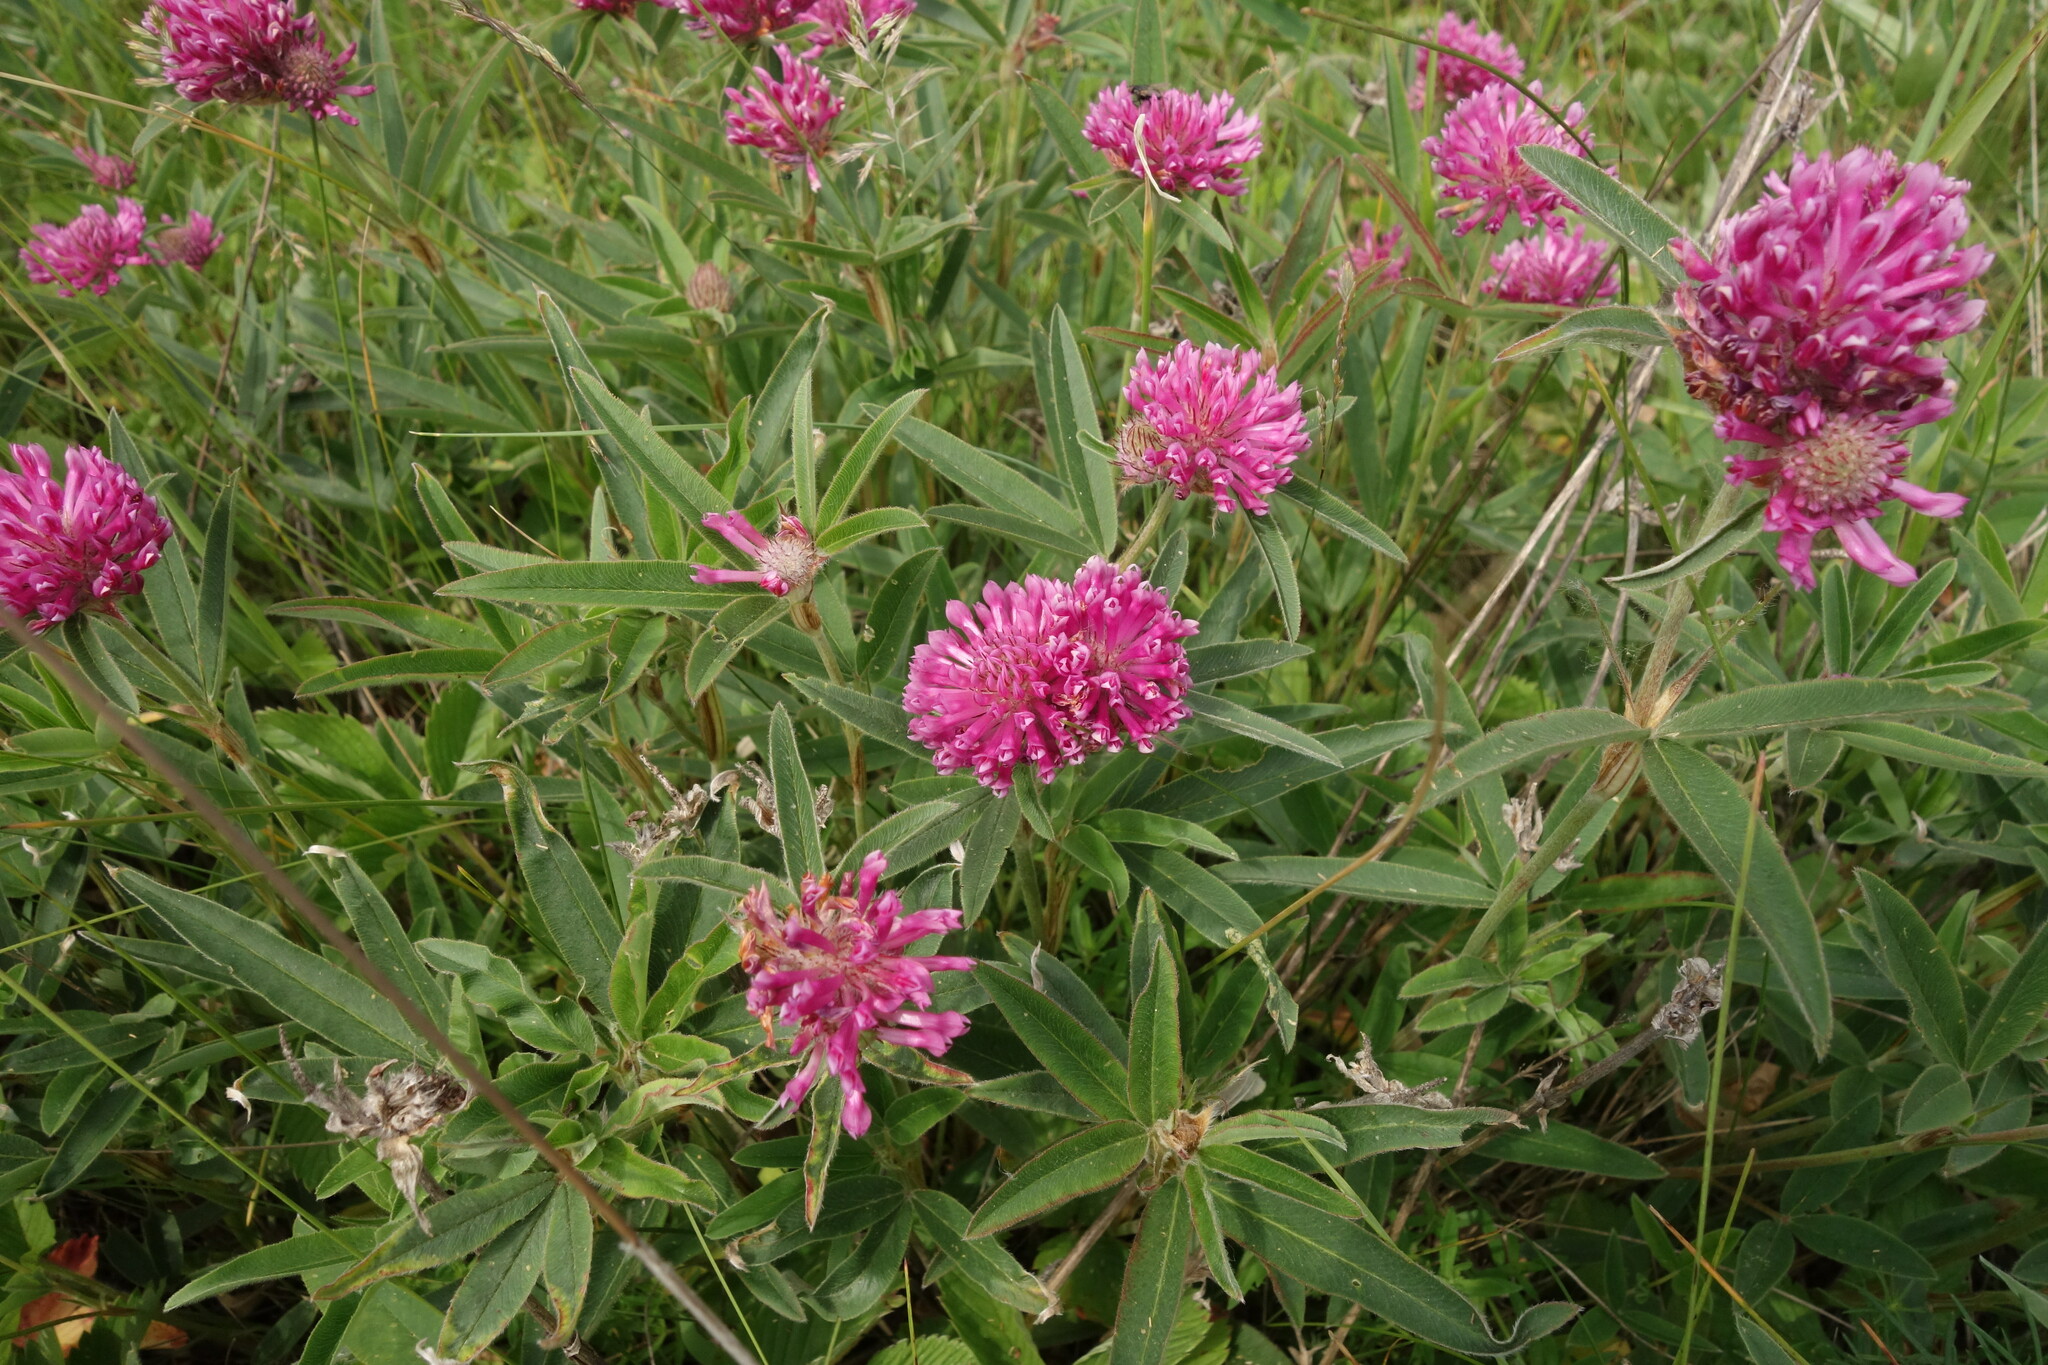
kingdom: Plantae
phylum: Tracheophyta
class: Magnoliopsida
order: Fabales
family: Fabaceae
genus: Trifolium
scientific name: Trifolium alpestre
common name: Owl-head clover
